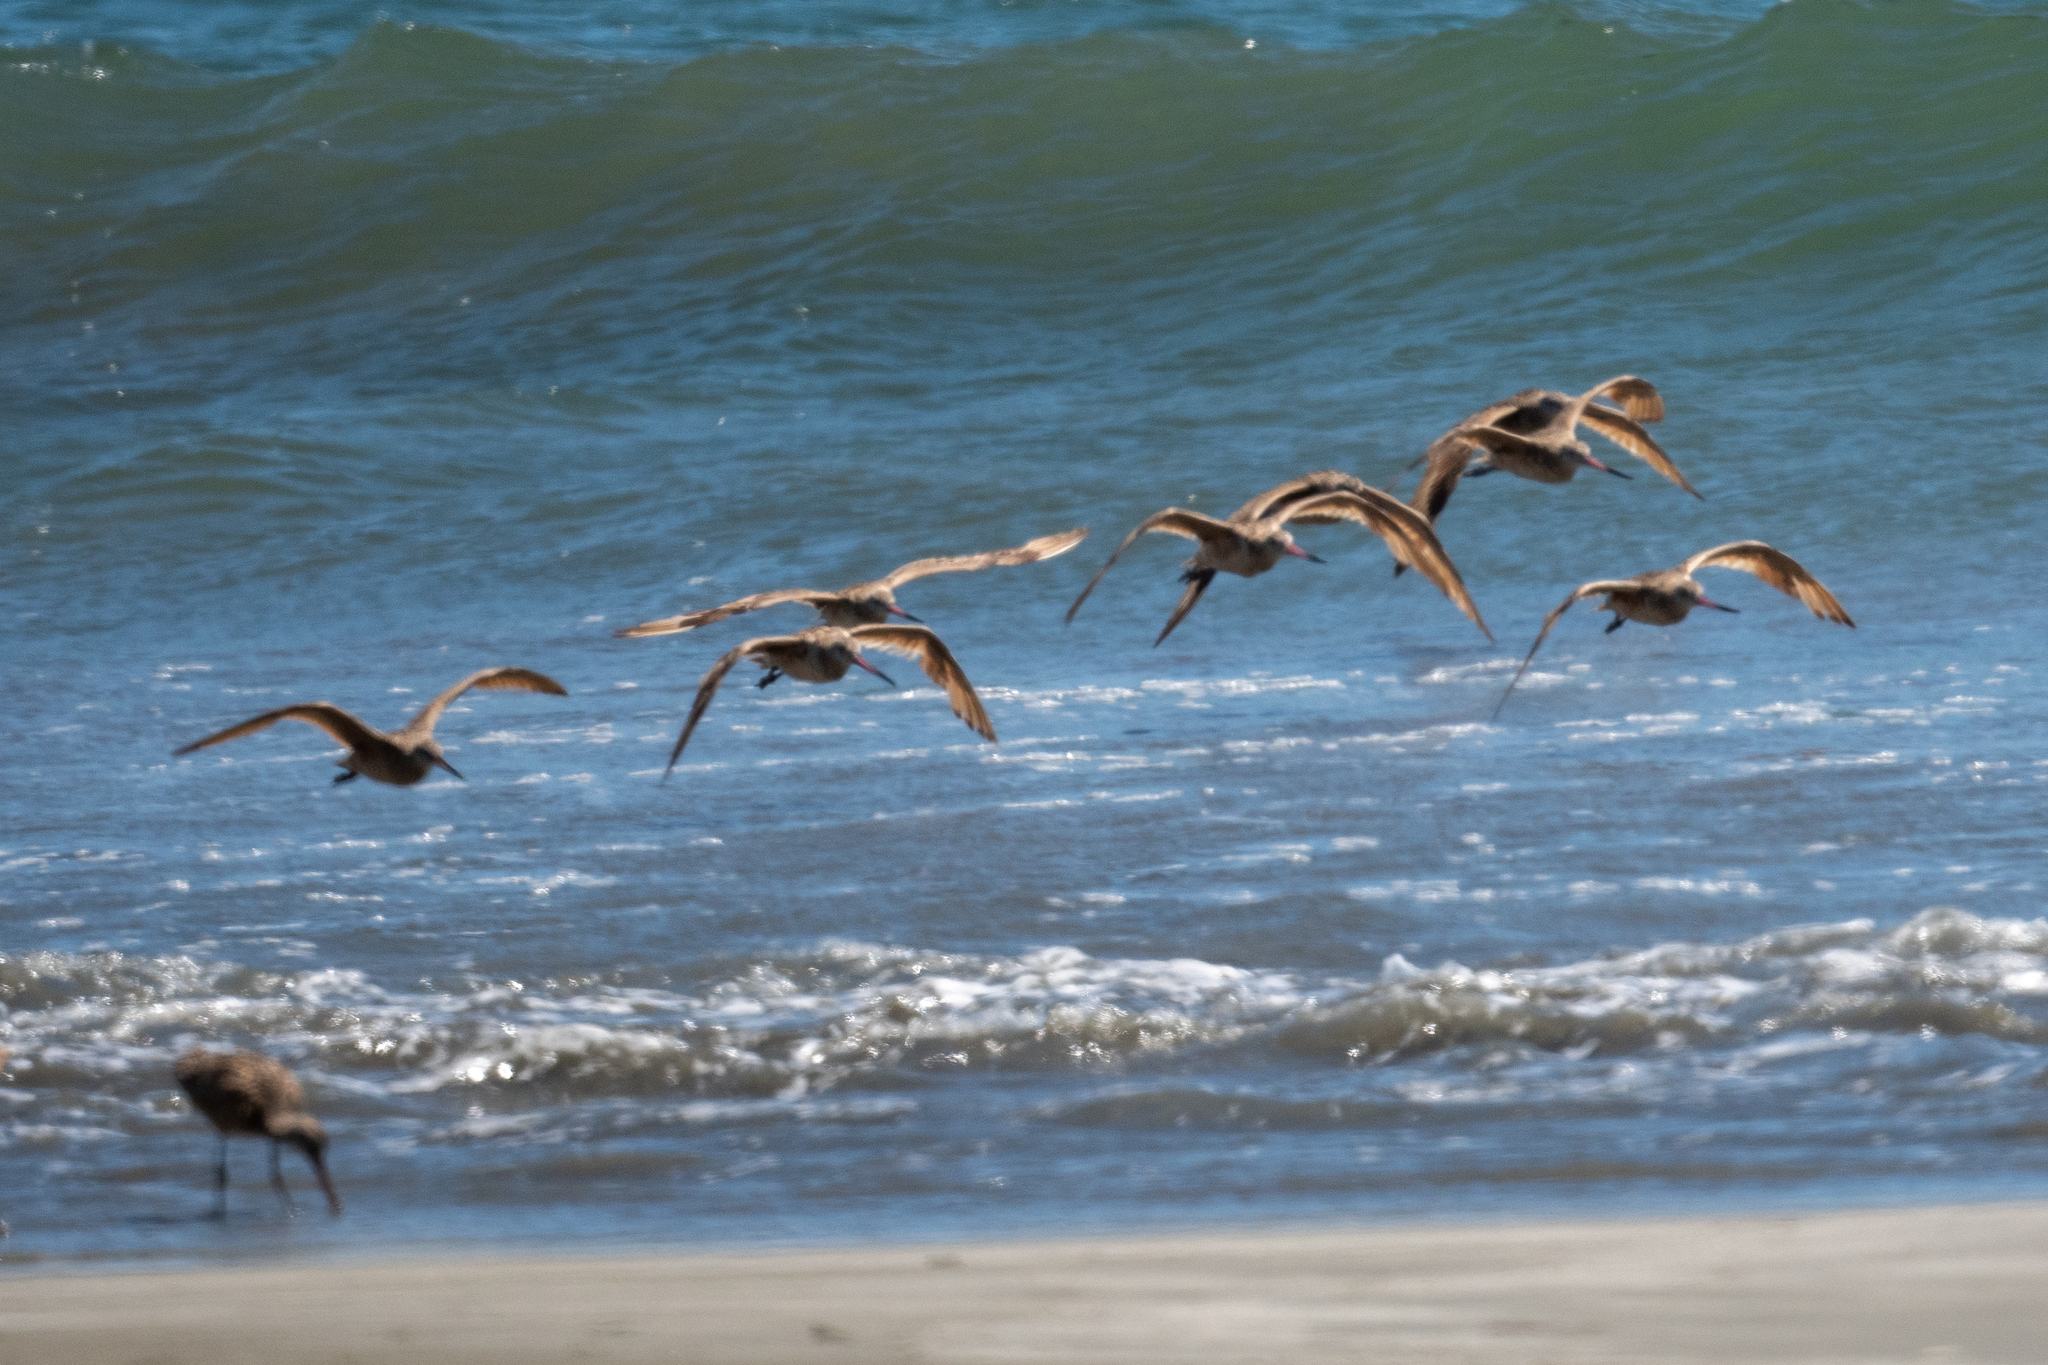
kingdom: Animalia
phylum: Chordata
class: Aves
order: Charadriiformes
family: Scolopacidae
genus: Limosa
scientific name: Limosa fedoa
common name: Marbled godwit
